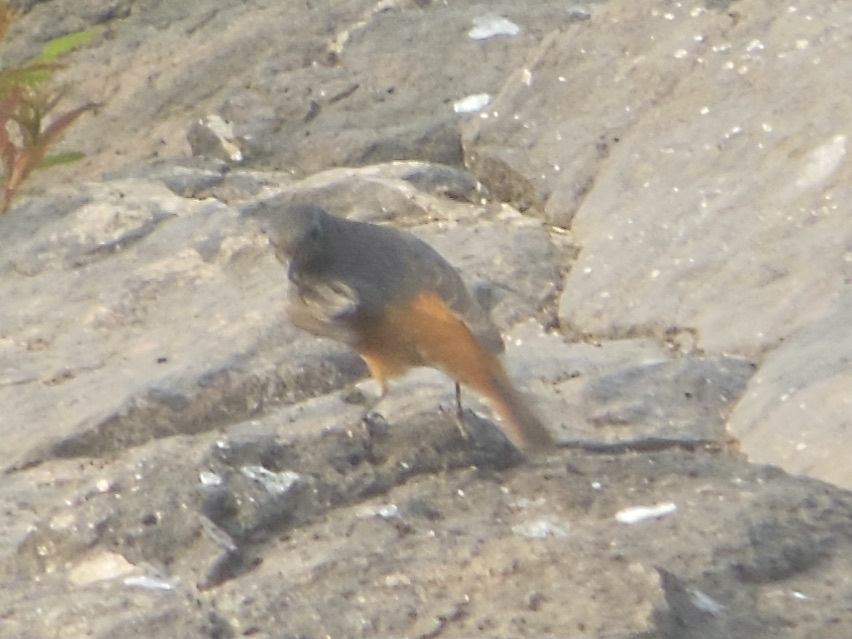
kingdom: Animalia
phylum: Chordata
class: Aves
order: Passeriformes
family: Muscicapidae
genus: Phoenicurus
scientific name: Phoenicurus ochruros
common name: Black redstart
